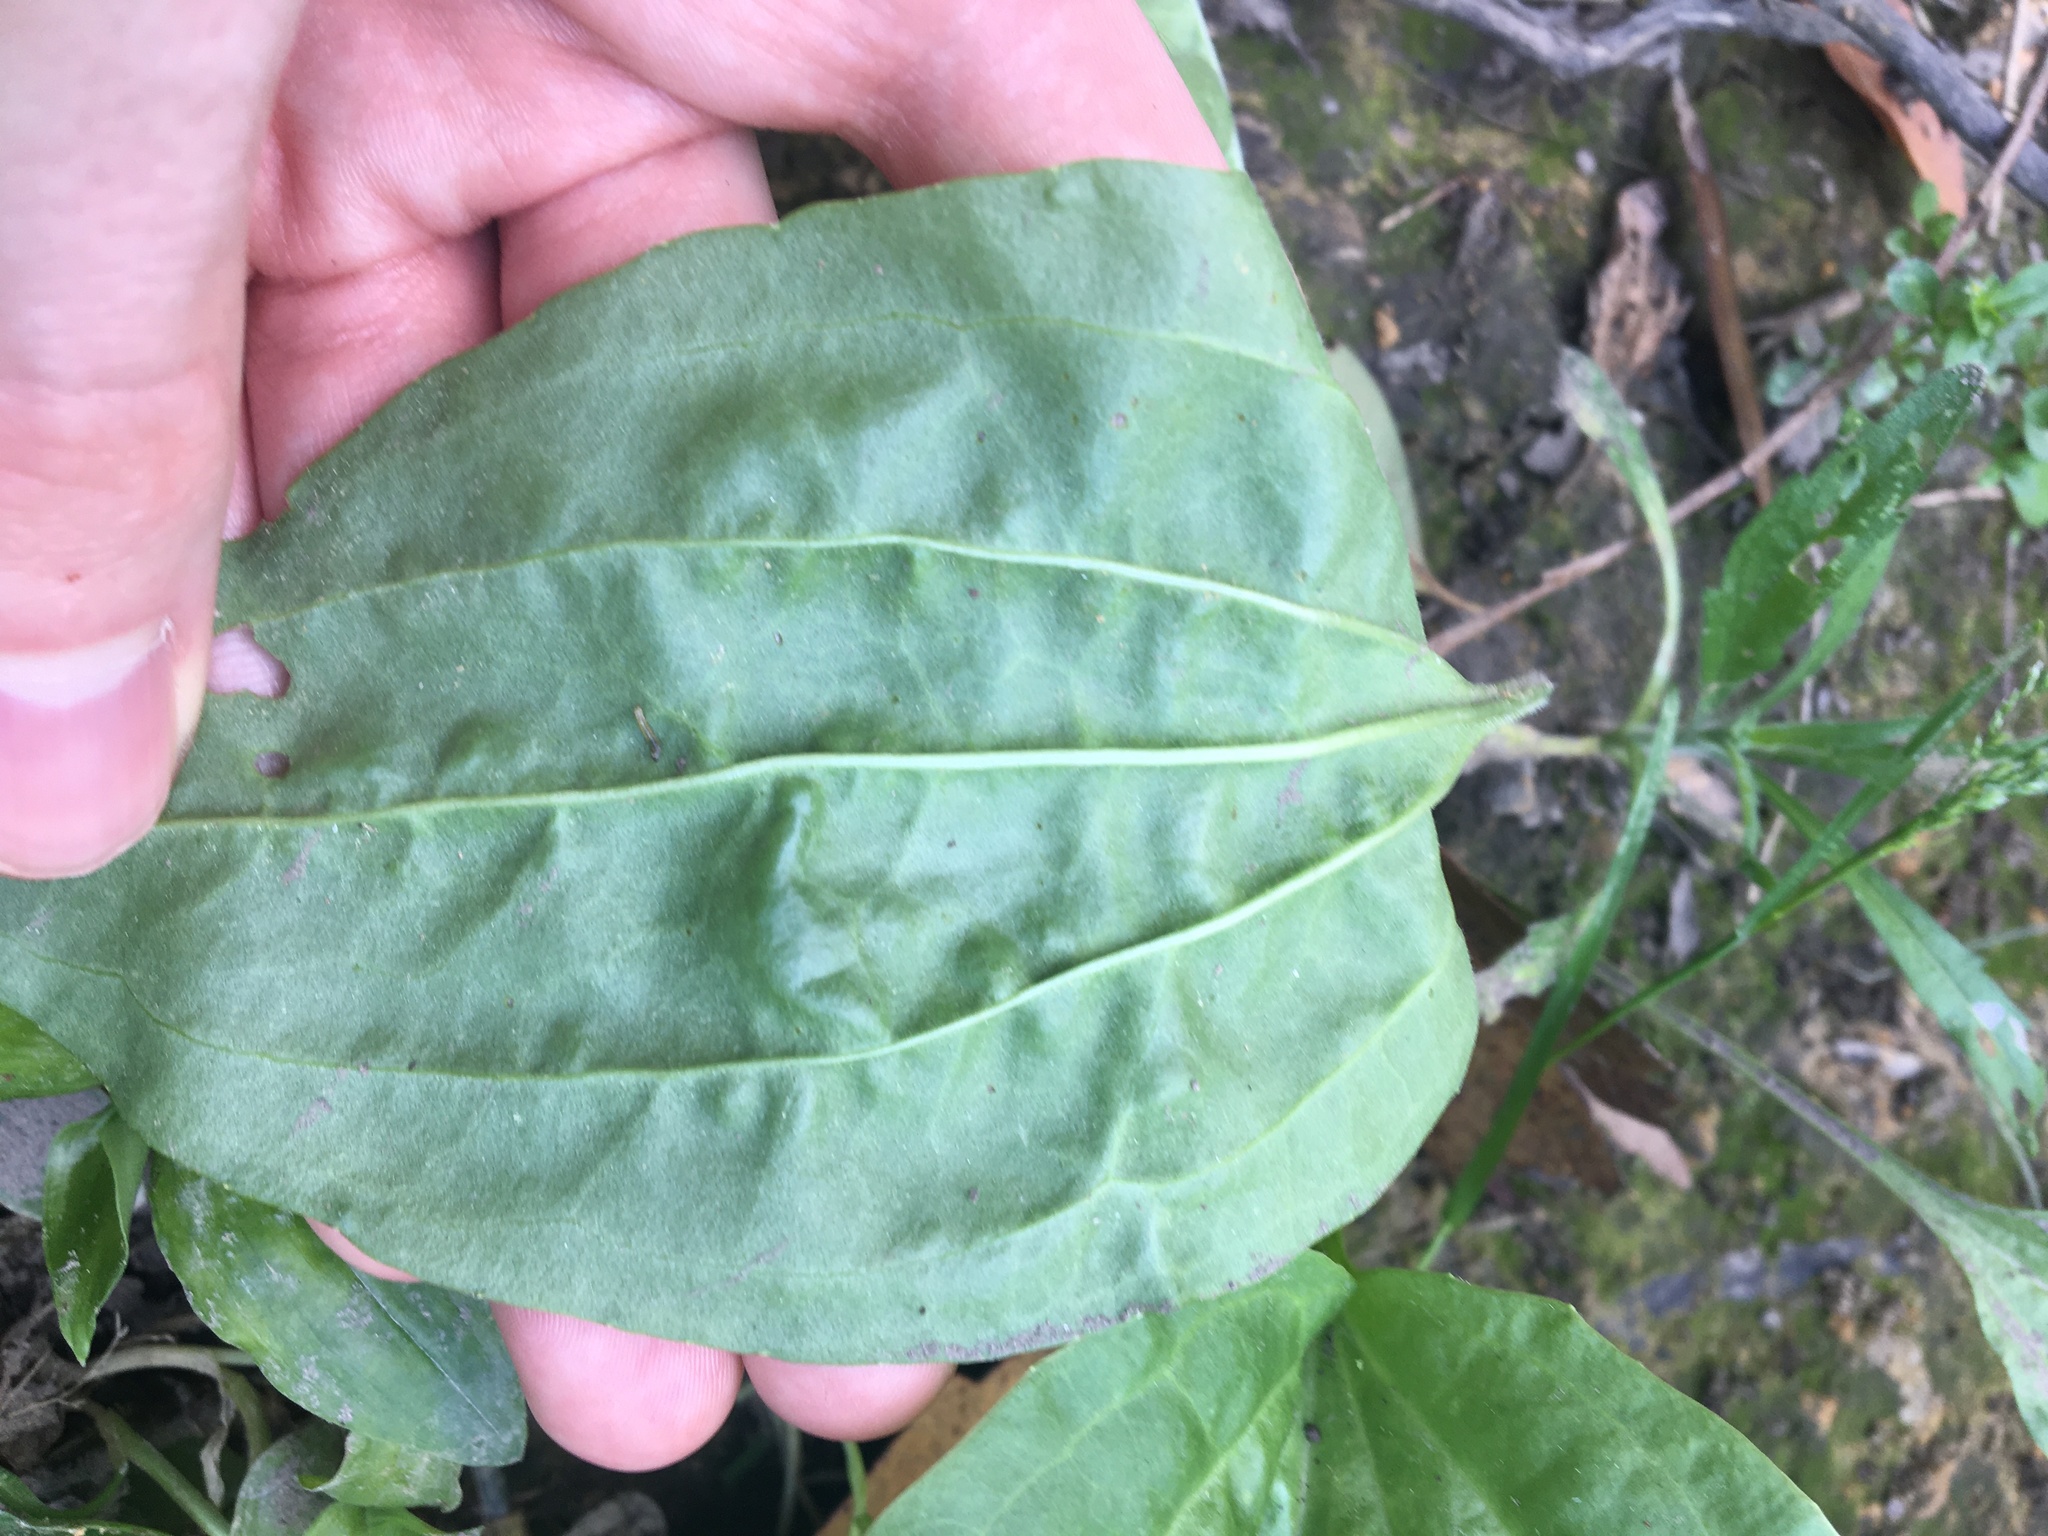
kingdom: Plantae
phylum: Tracheophyta
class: Magnoliopsida
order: Lamiales
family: Plantaginaceae
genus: Plantago
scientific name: Plantago major
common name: Common plantain
